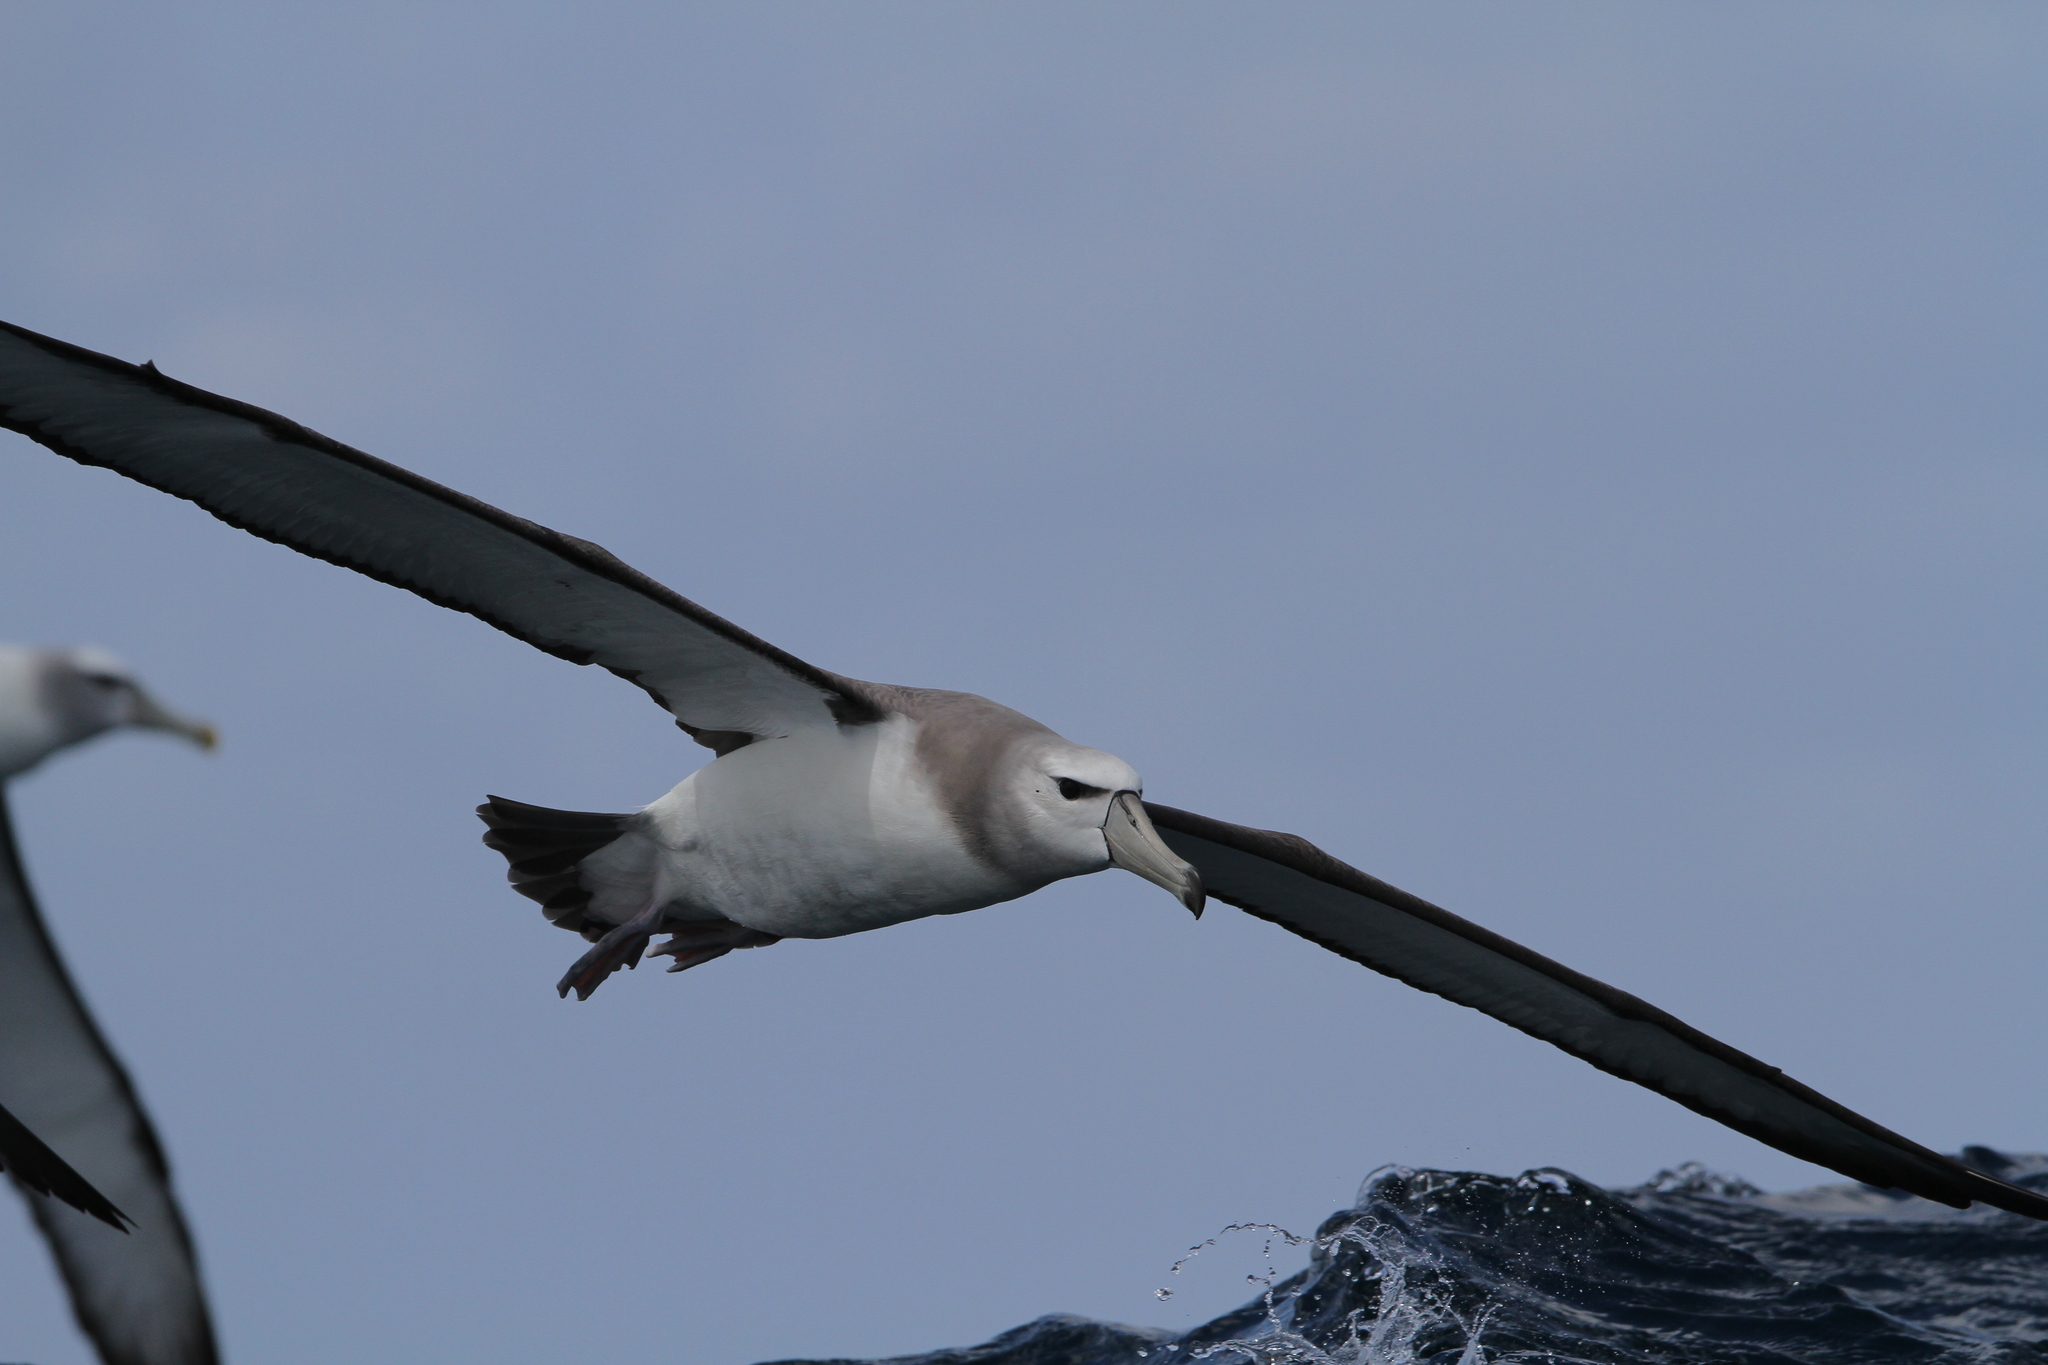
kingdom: Animalia
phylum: Chordata
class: Aves
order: Procellariiformes
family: Diomedeidae
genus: Thalassarche
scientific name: Thalassarche cauta
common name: Shy albatross
